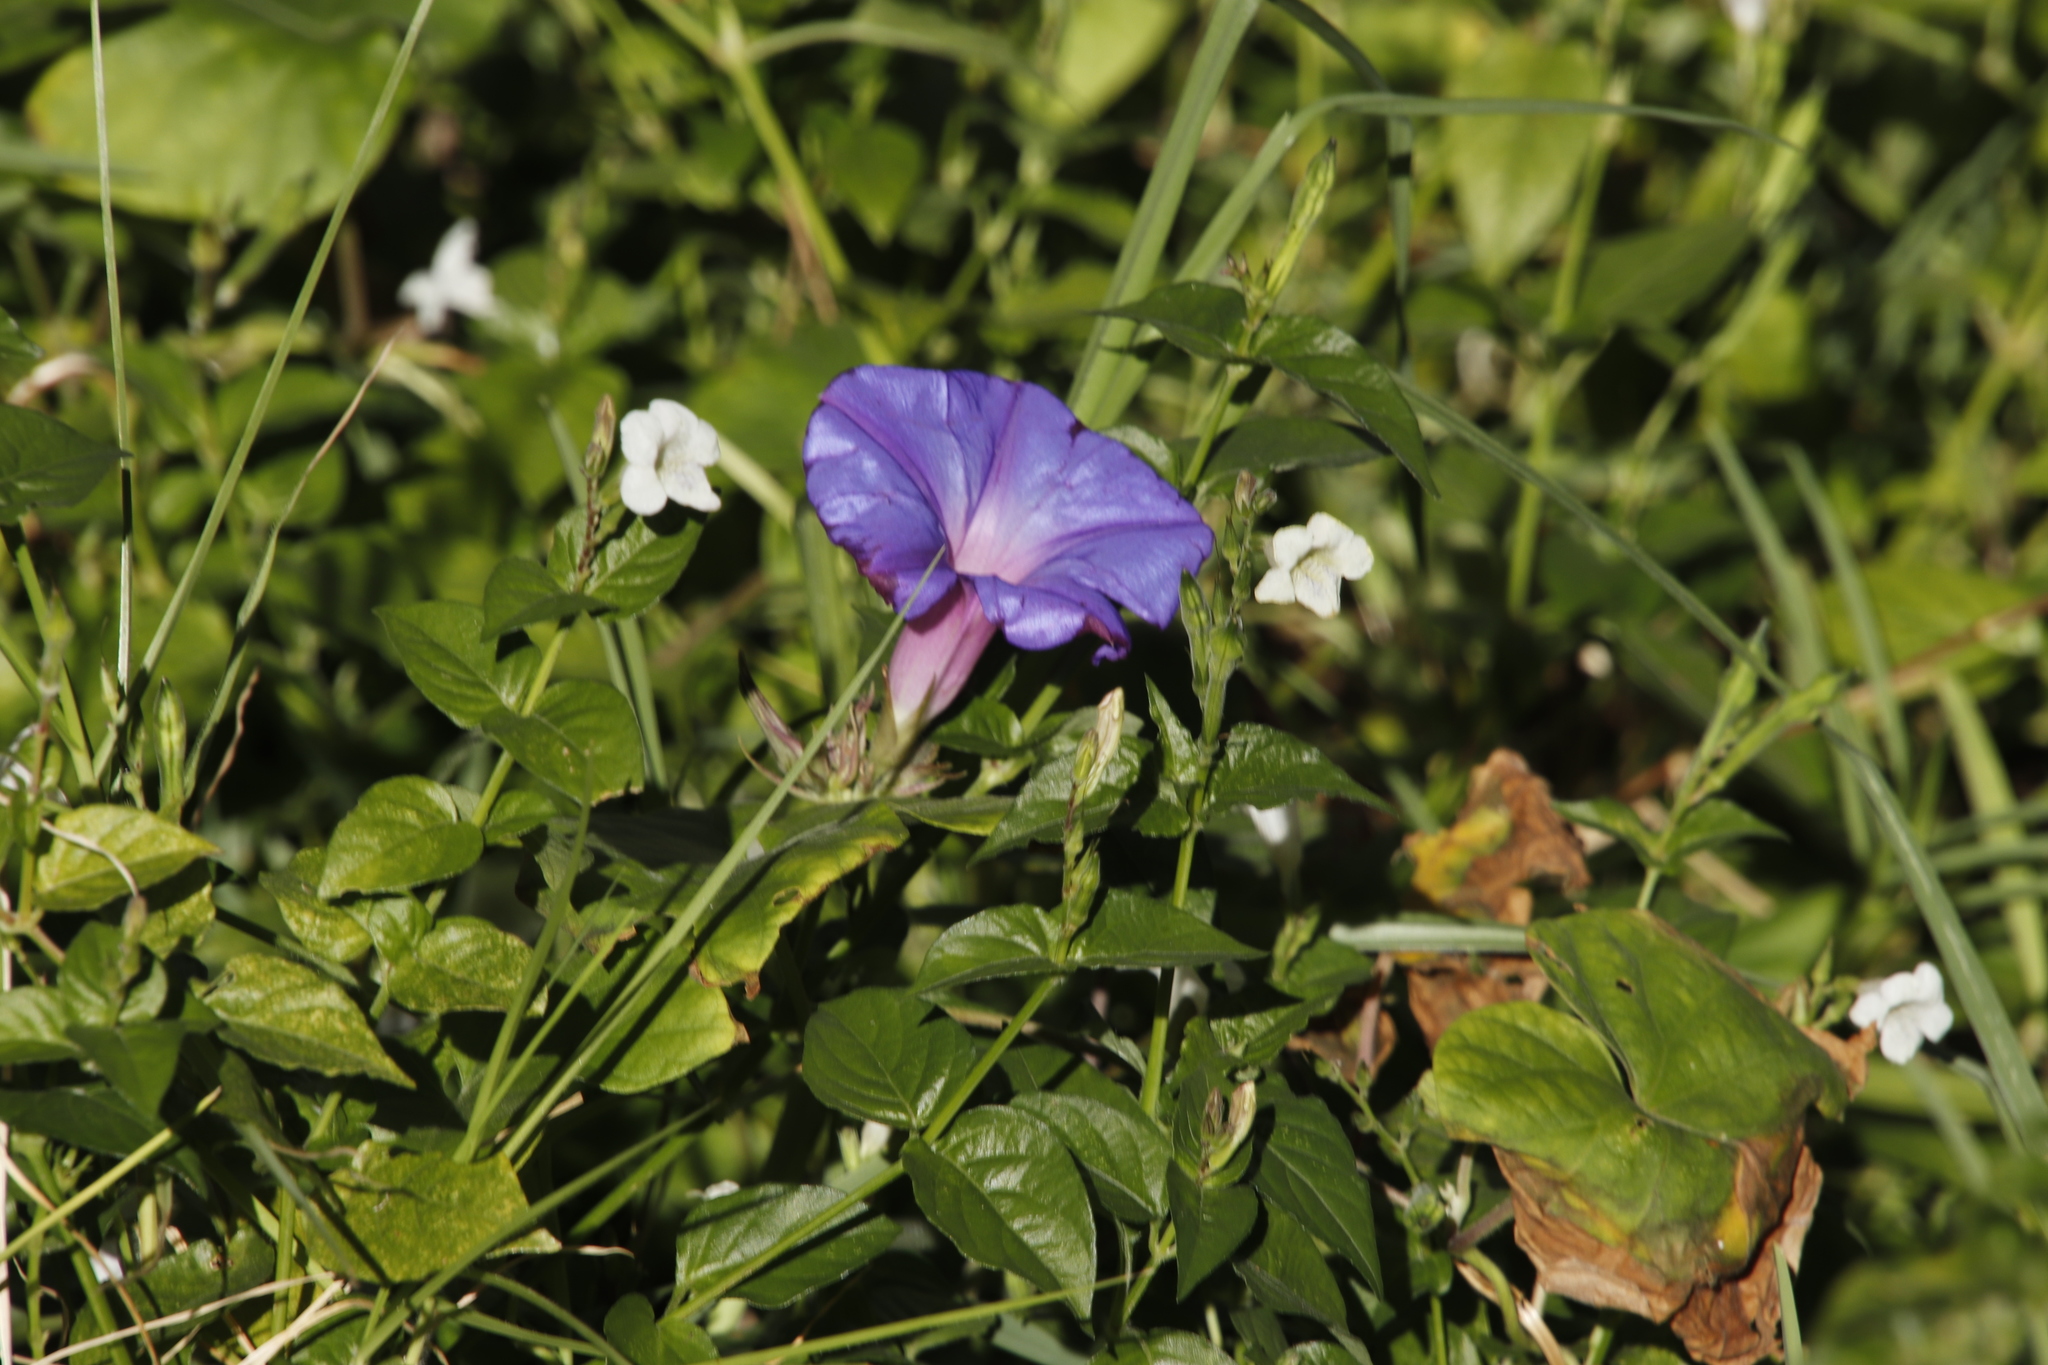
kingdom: Plantae
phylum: Tracheophyta
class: Magnoliopsida
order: Solanales
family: Convolvulaceae
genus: Ipomoea
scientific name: Ipomoea indica
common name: Blue dawnflower
